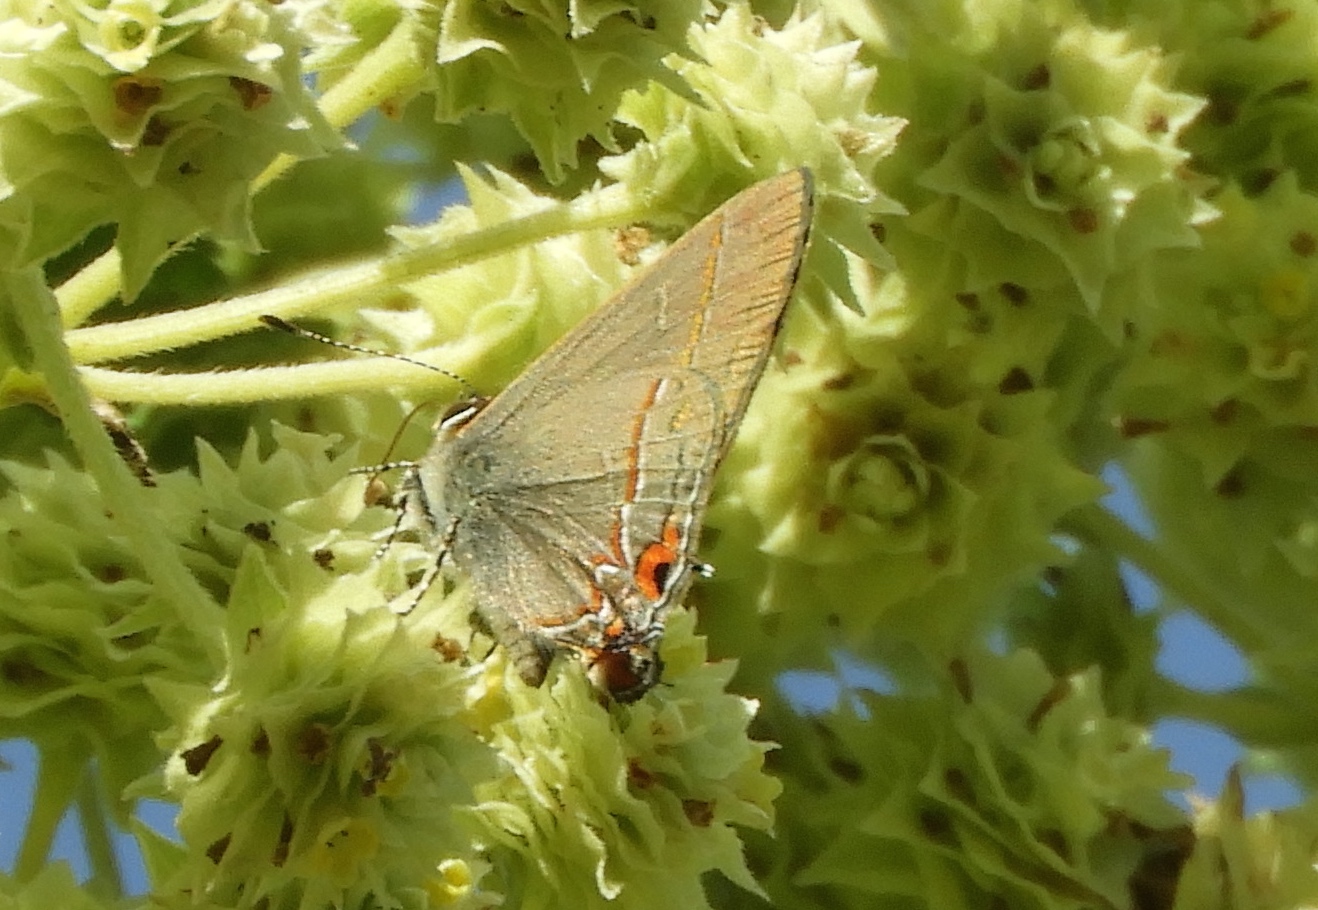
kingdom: Animalia
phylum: Arthropoda
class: Insecta
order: Lepidoptera
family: Lycaenidae
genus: Electrostrymon
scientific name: Electrostrymon endymion
